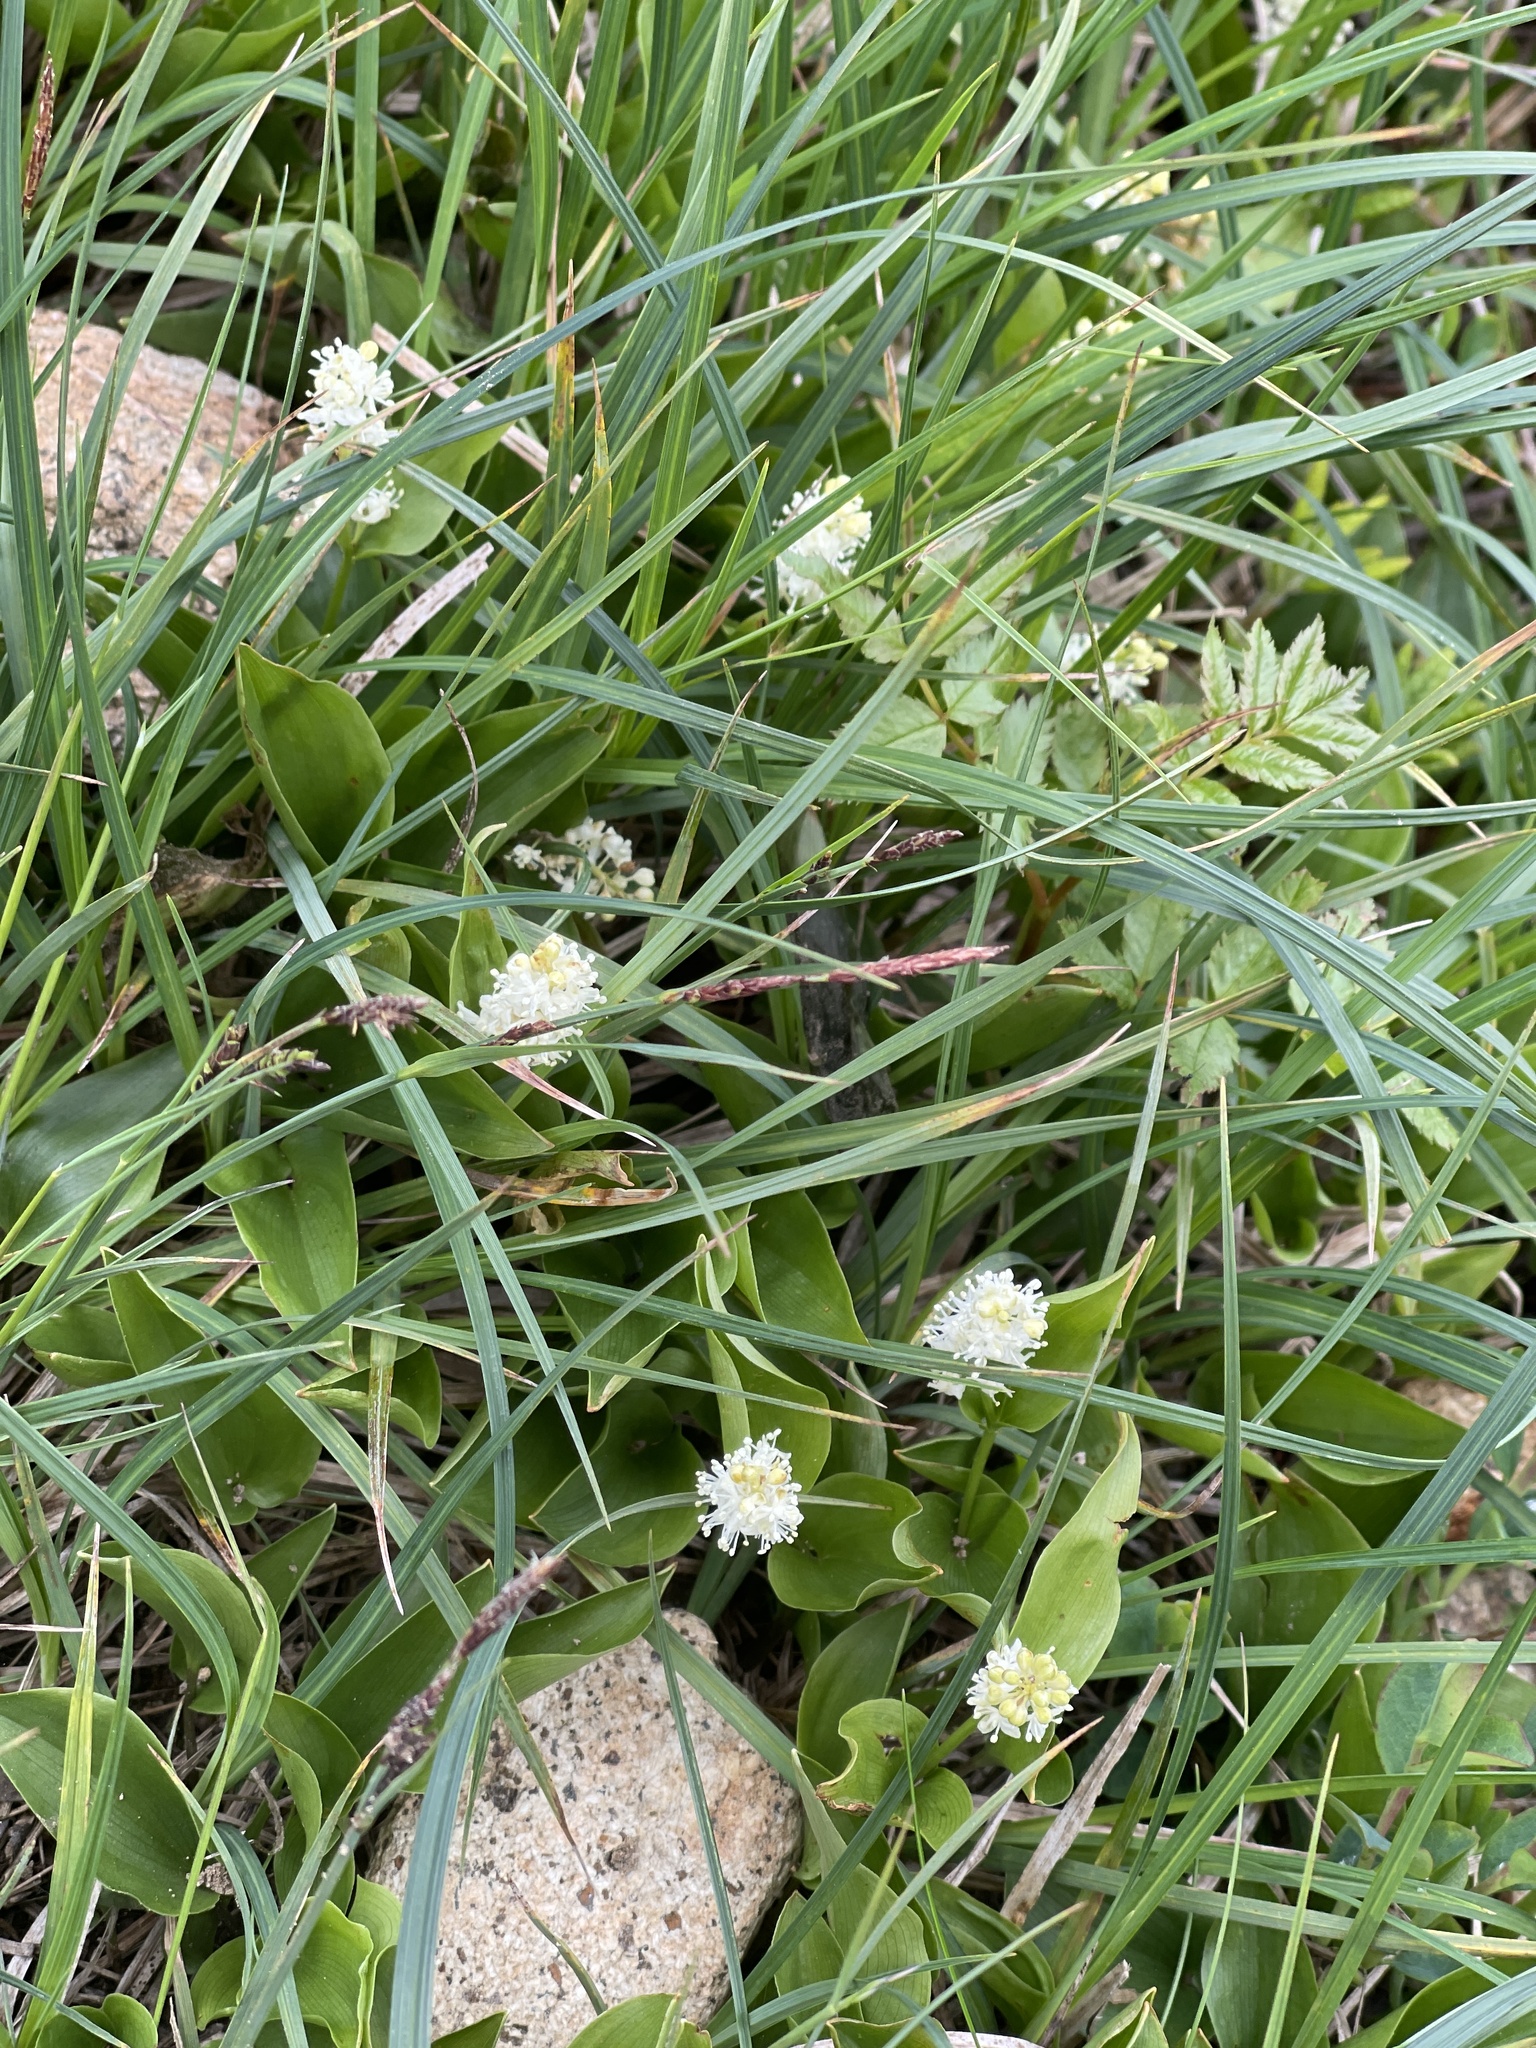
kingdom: Plantae
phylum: Tracheophyta
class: Liliopsida
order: Asparagales
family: Asparagaceae
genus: Maianthemum
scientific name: Maianthemum canadense
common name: False lily-of-the-valley
